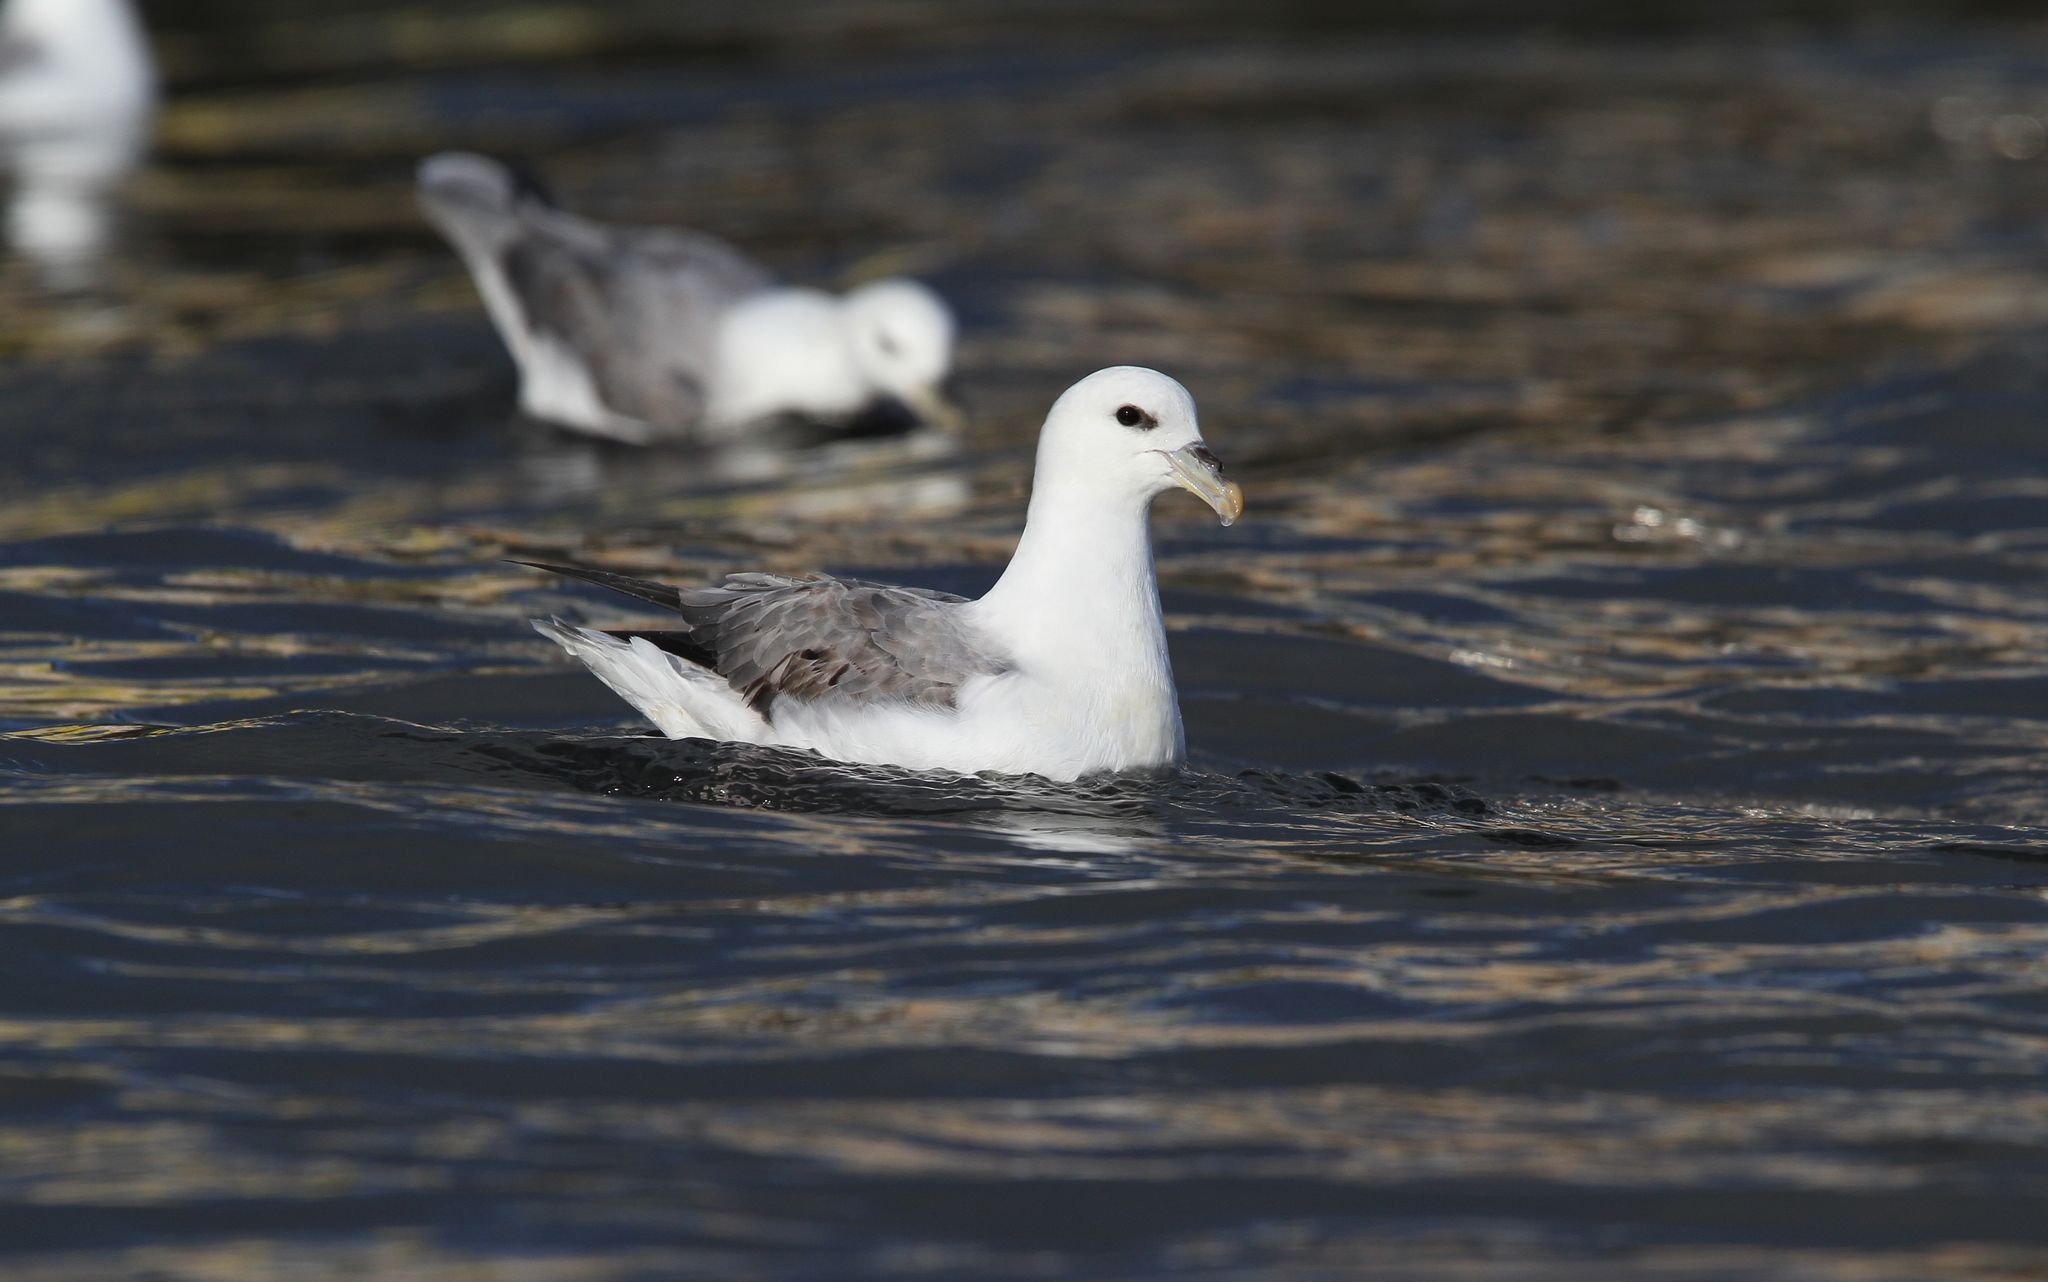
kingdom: Animalia
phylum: Chordata
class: Aves
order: Procellariiformes
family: Procellariidae
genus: Fulmarus
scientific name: Fulmarus glacialis
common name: Northern fulmar
